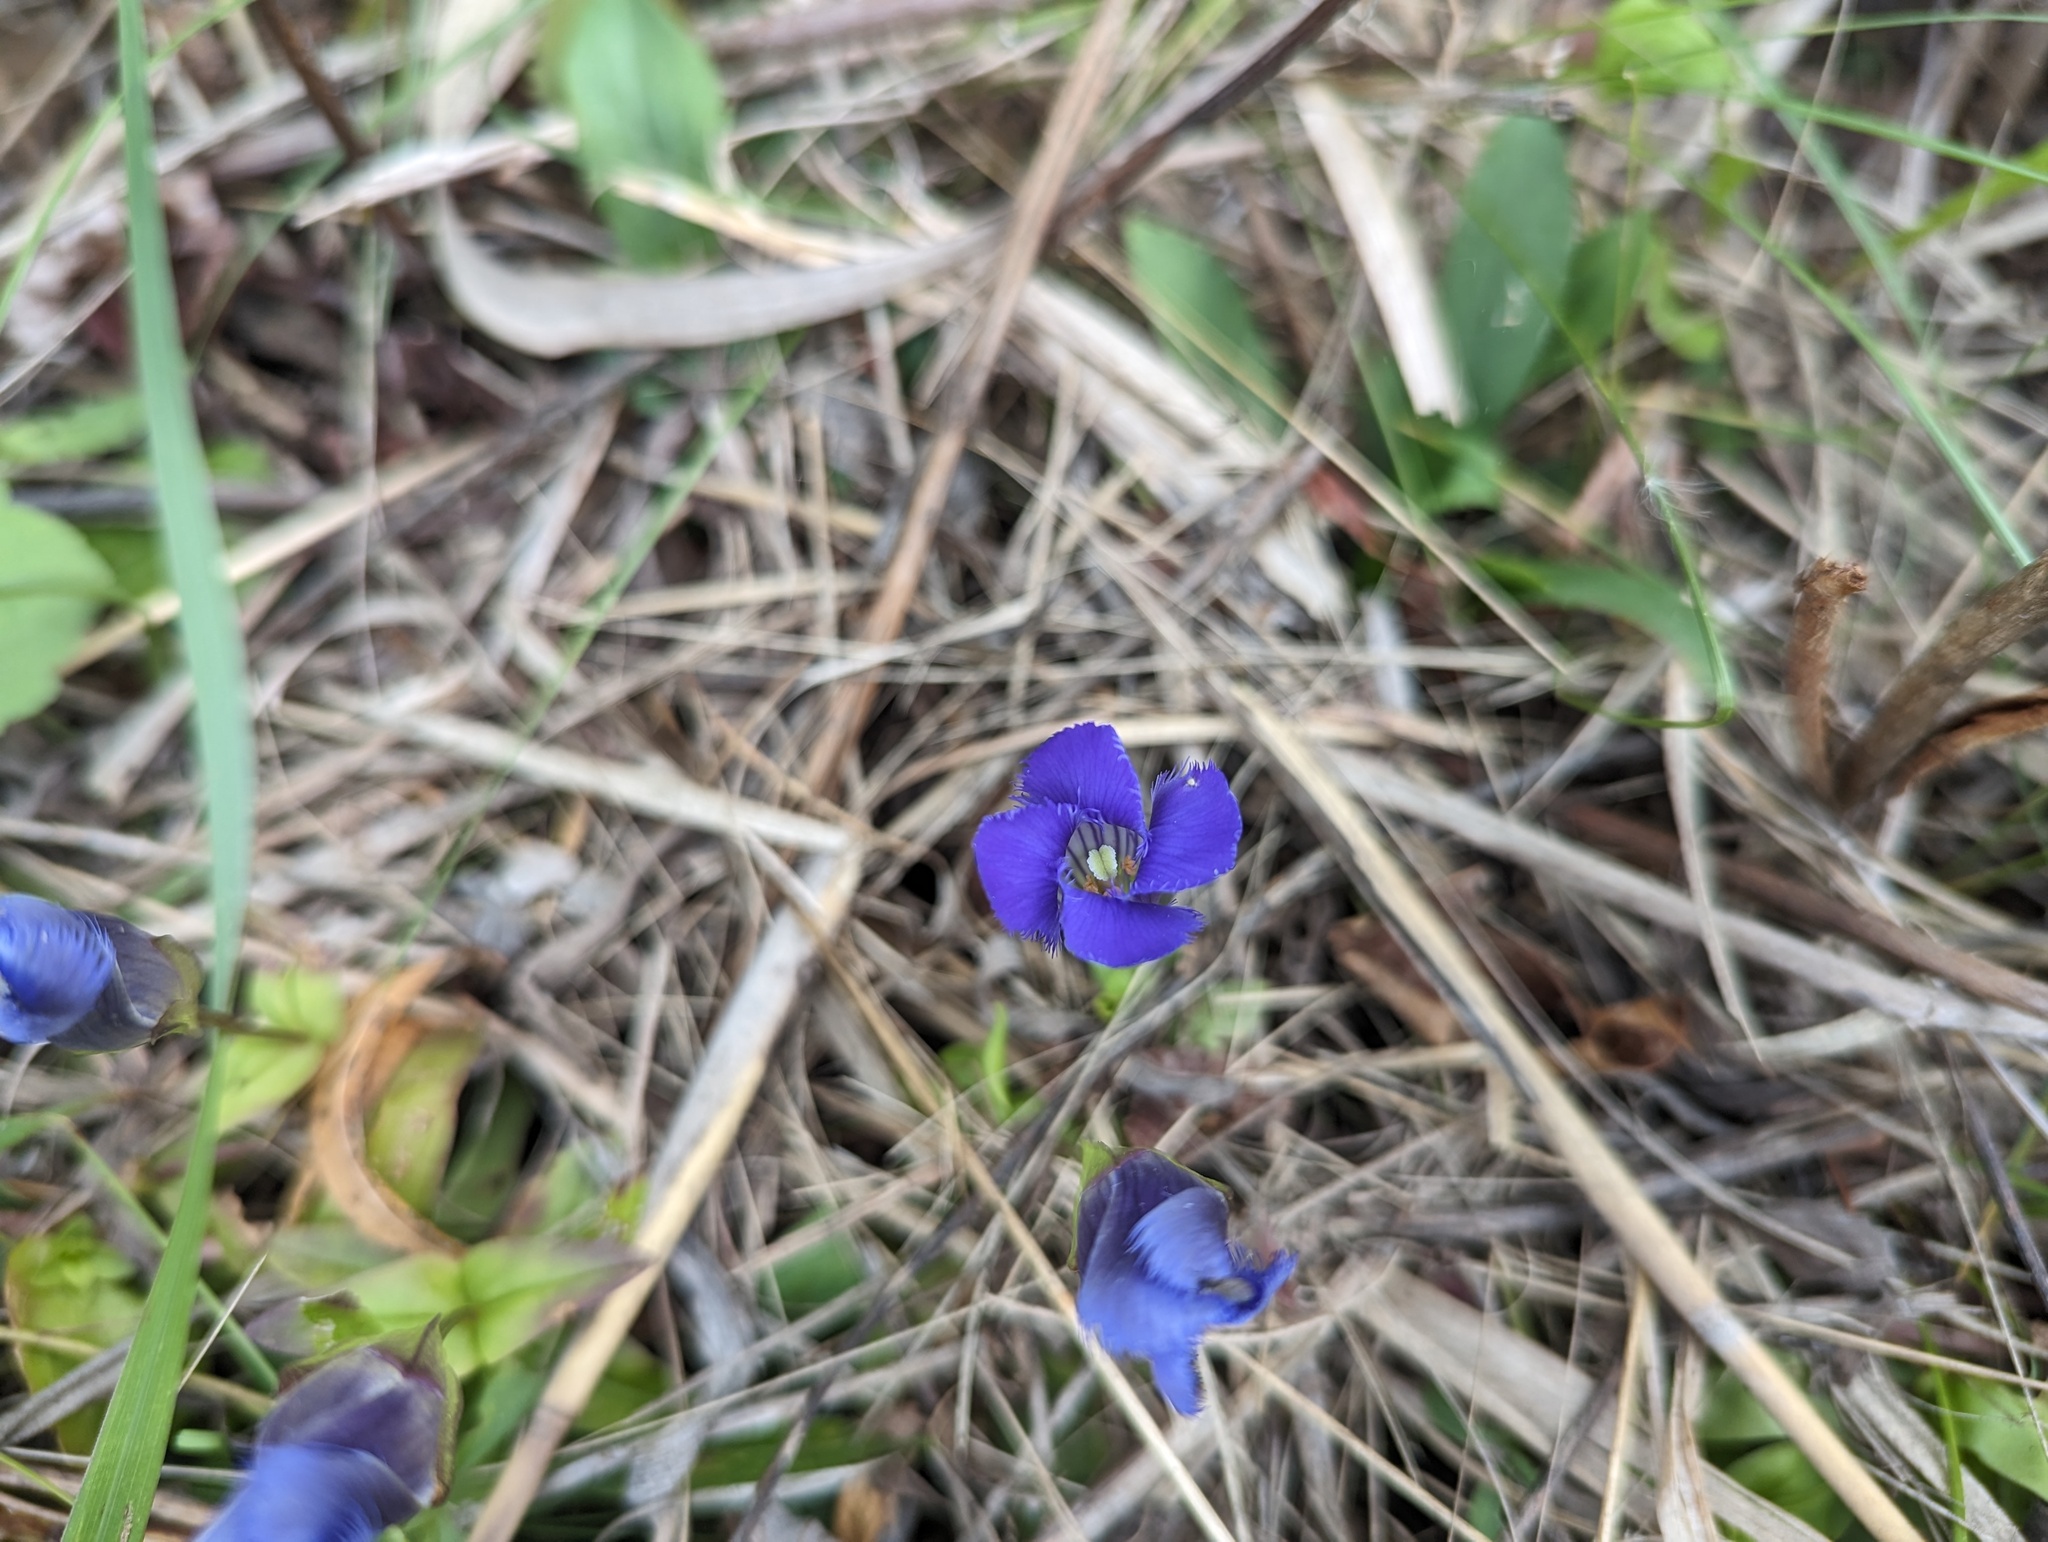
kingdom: Plantae
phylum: Tracheophyta
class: Magnoliopsida
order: Gentianales
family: Gentianaceae
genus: Gentianopsis
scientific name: Gentianopsis virgata
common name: Lesser fringed-gentian
